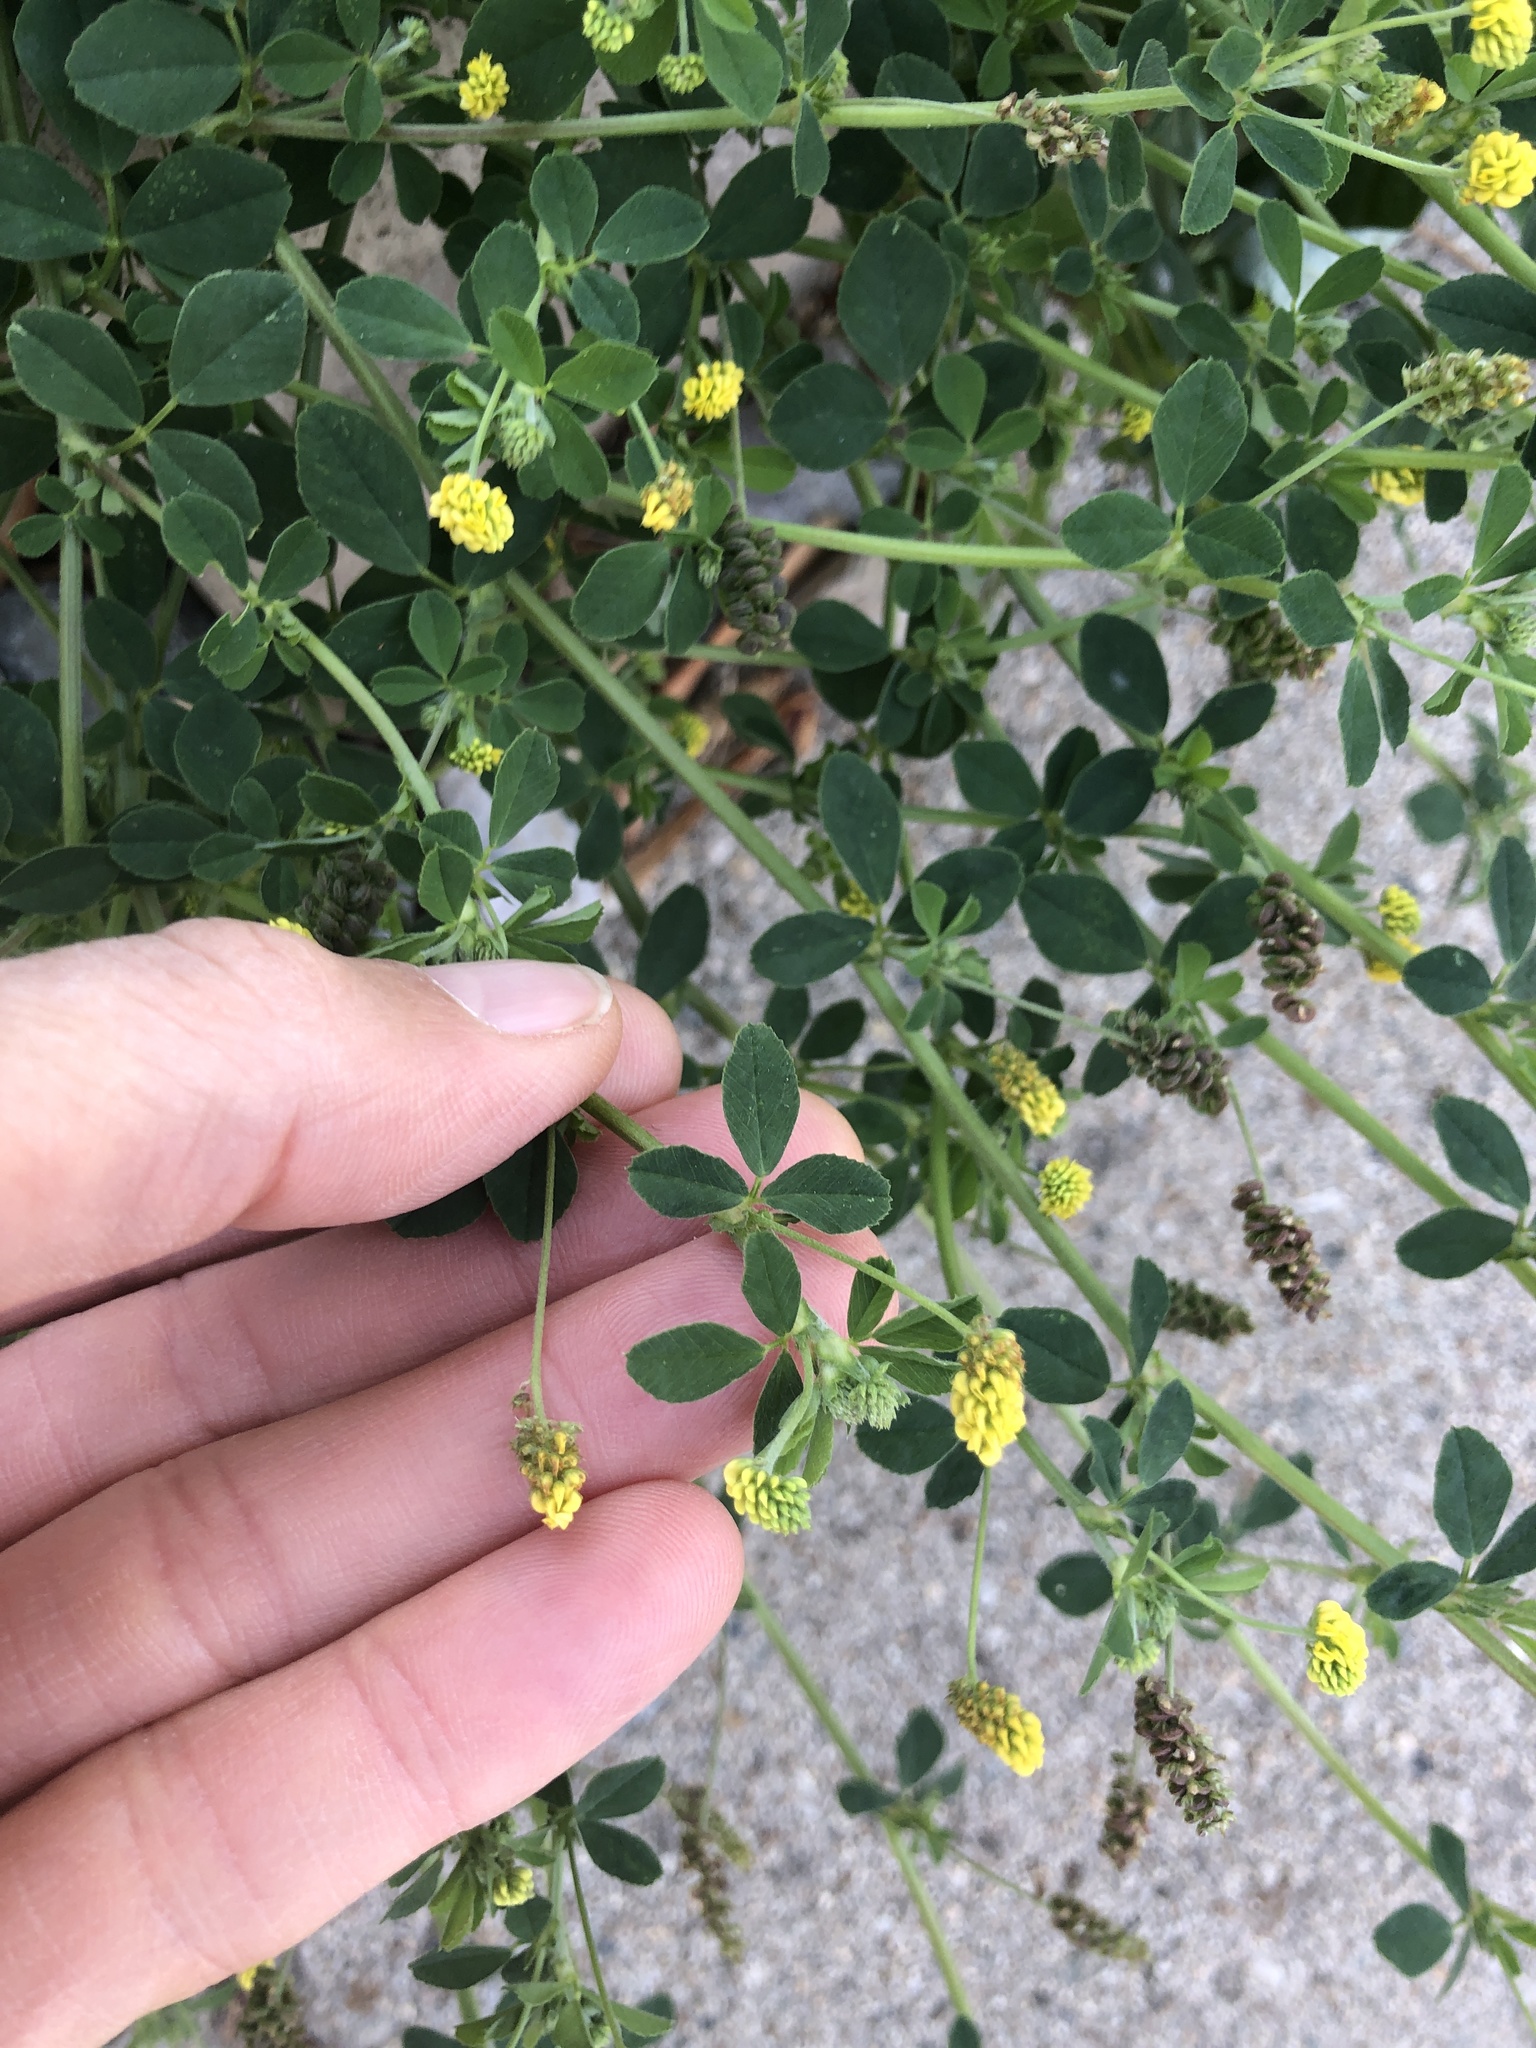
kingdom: Plantae
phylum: Tracheophyta
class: Magnoliopsida
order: Fabales
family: Fabaceae
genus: Medicago
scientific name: Medicago lupulina
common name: Black medick
